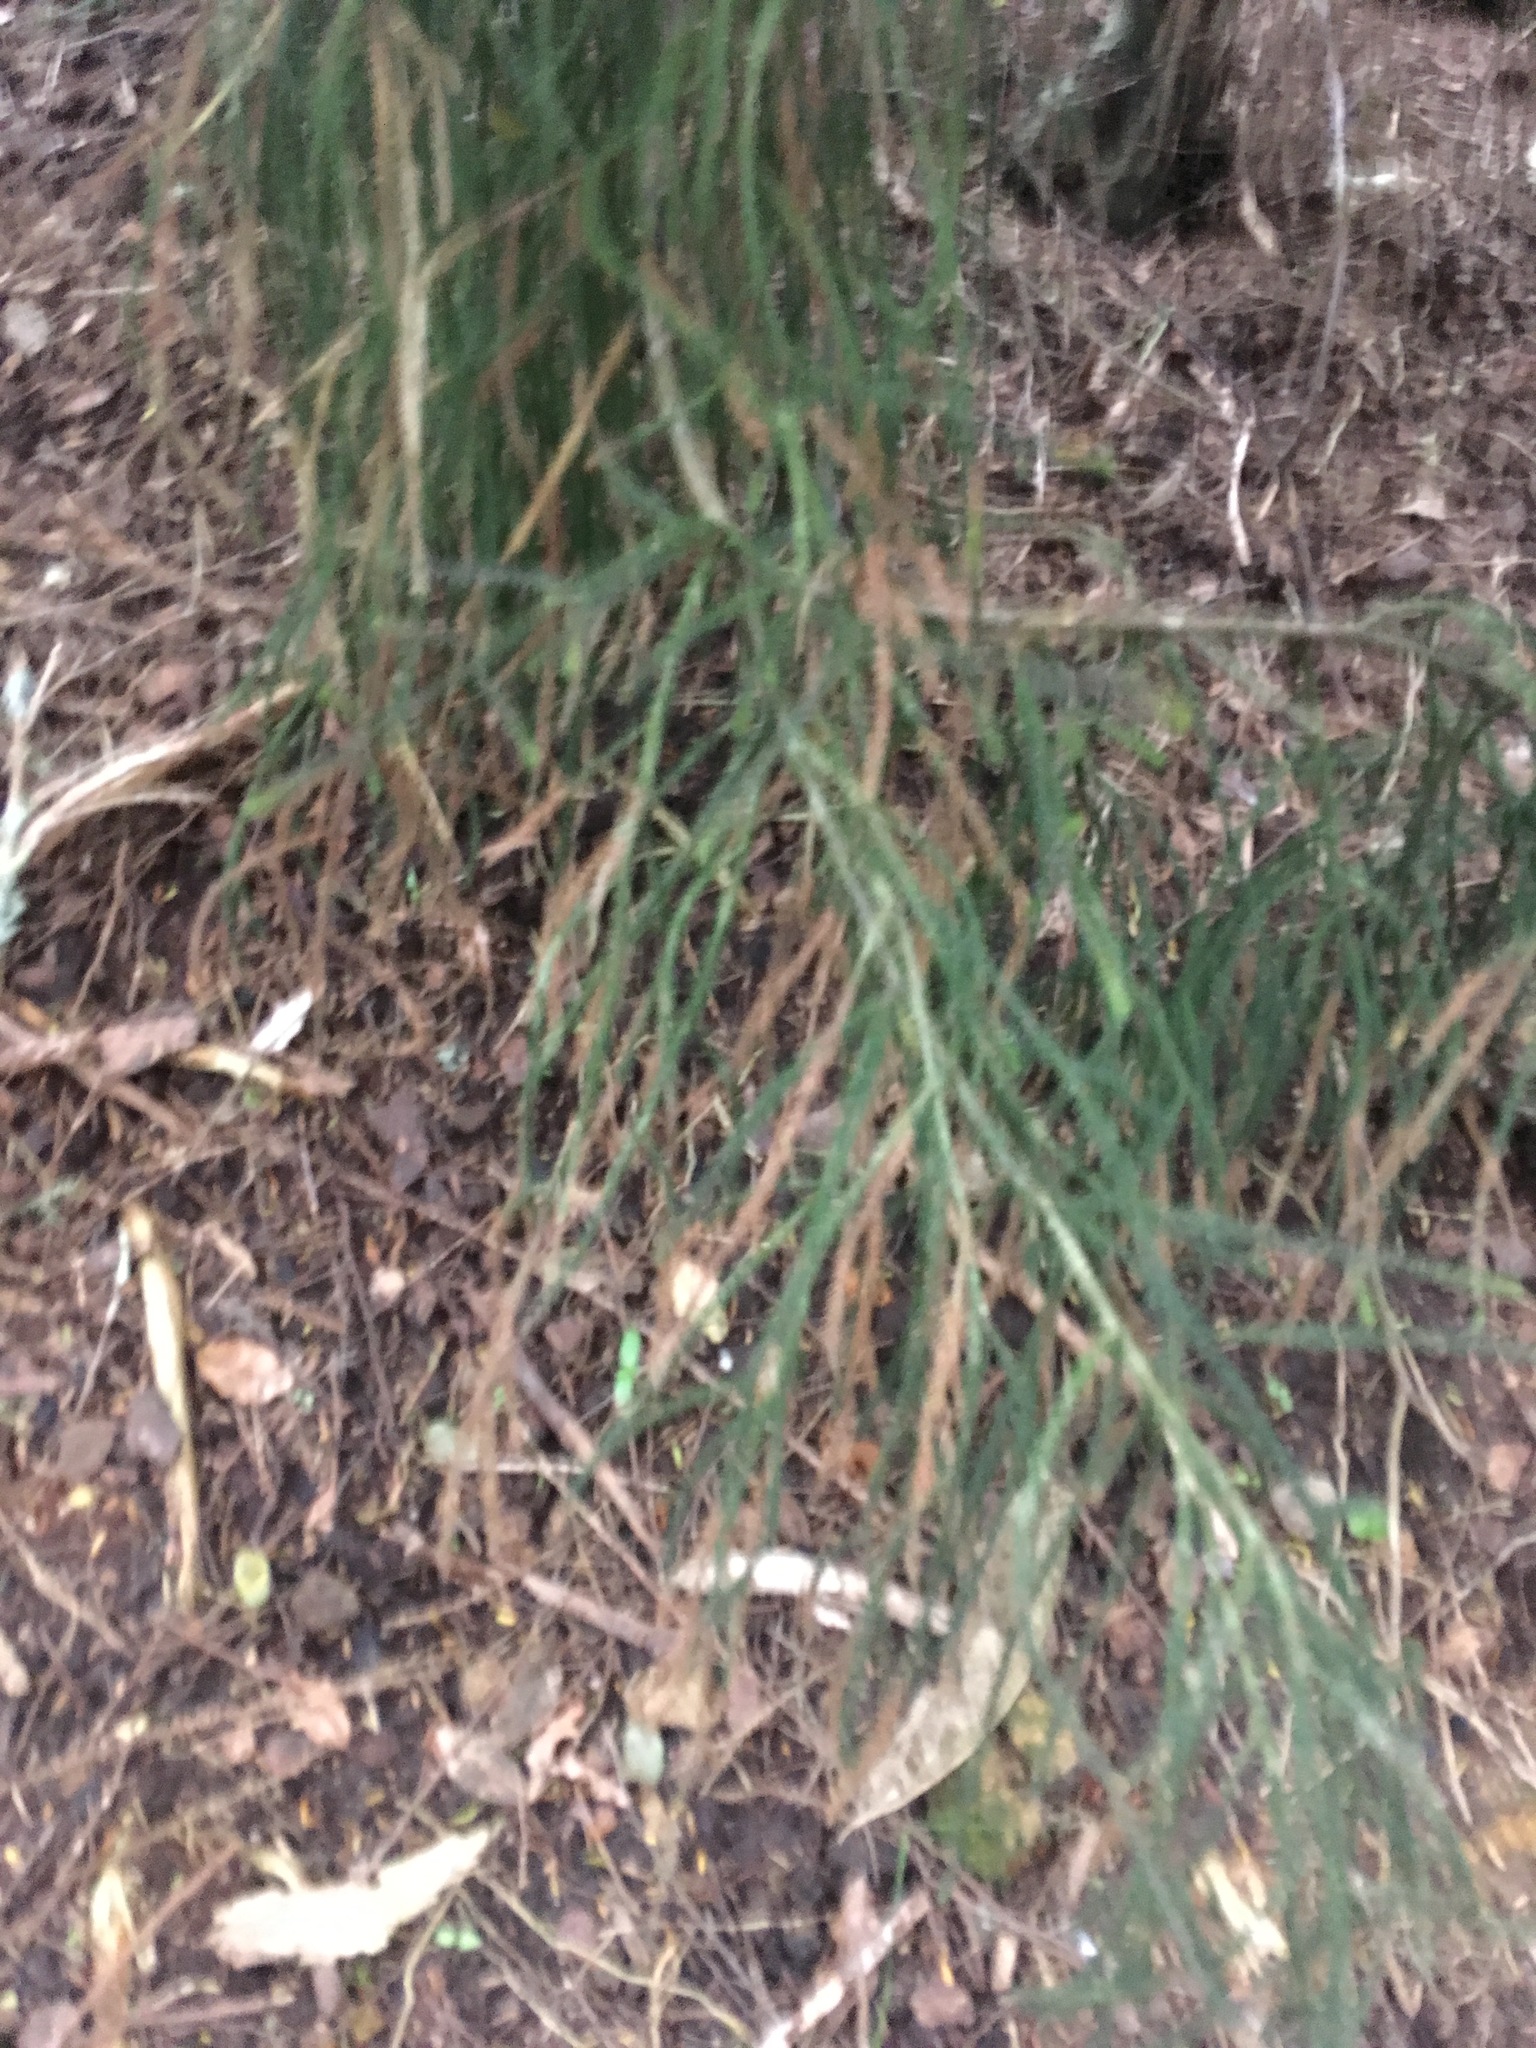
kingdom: Plantae
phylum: Tracheophyta
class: Pinopsida
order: Pinales
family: Podocarpaceae
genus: Dacrydium
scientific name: Dacrydium cupressinum
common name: Red pine
